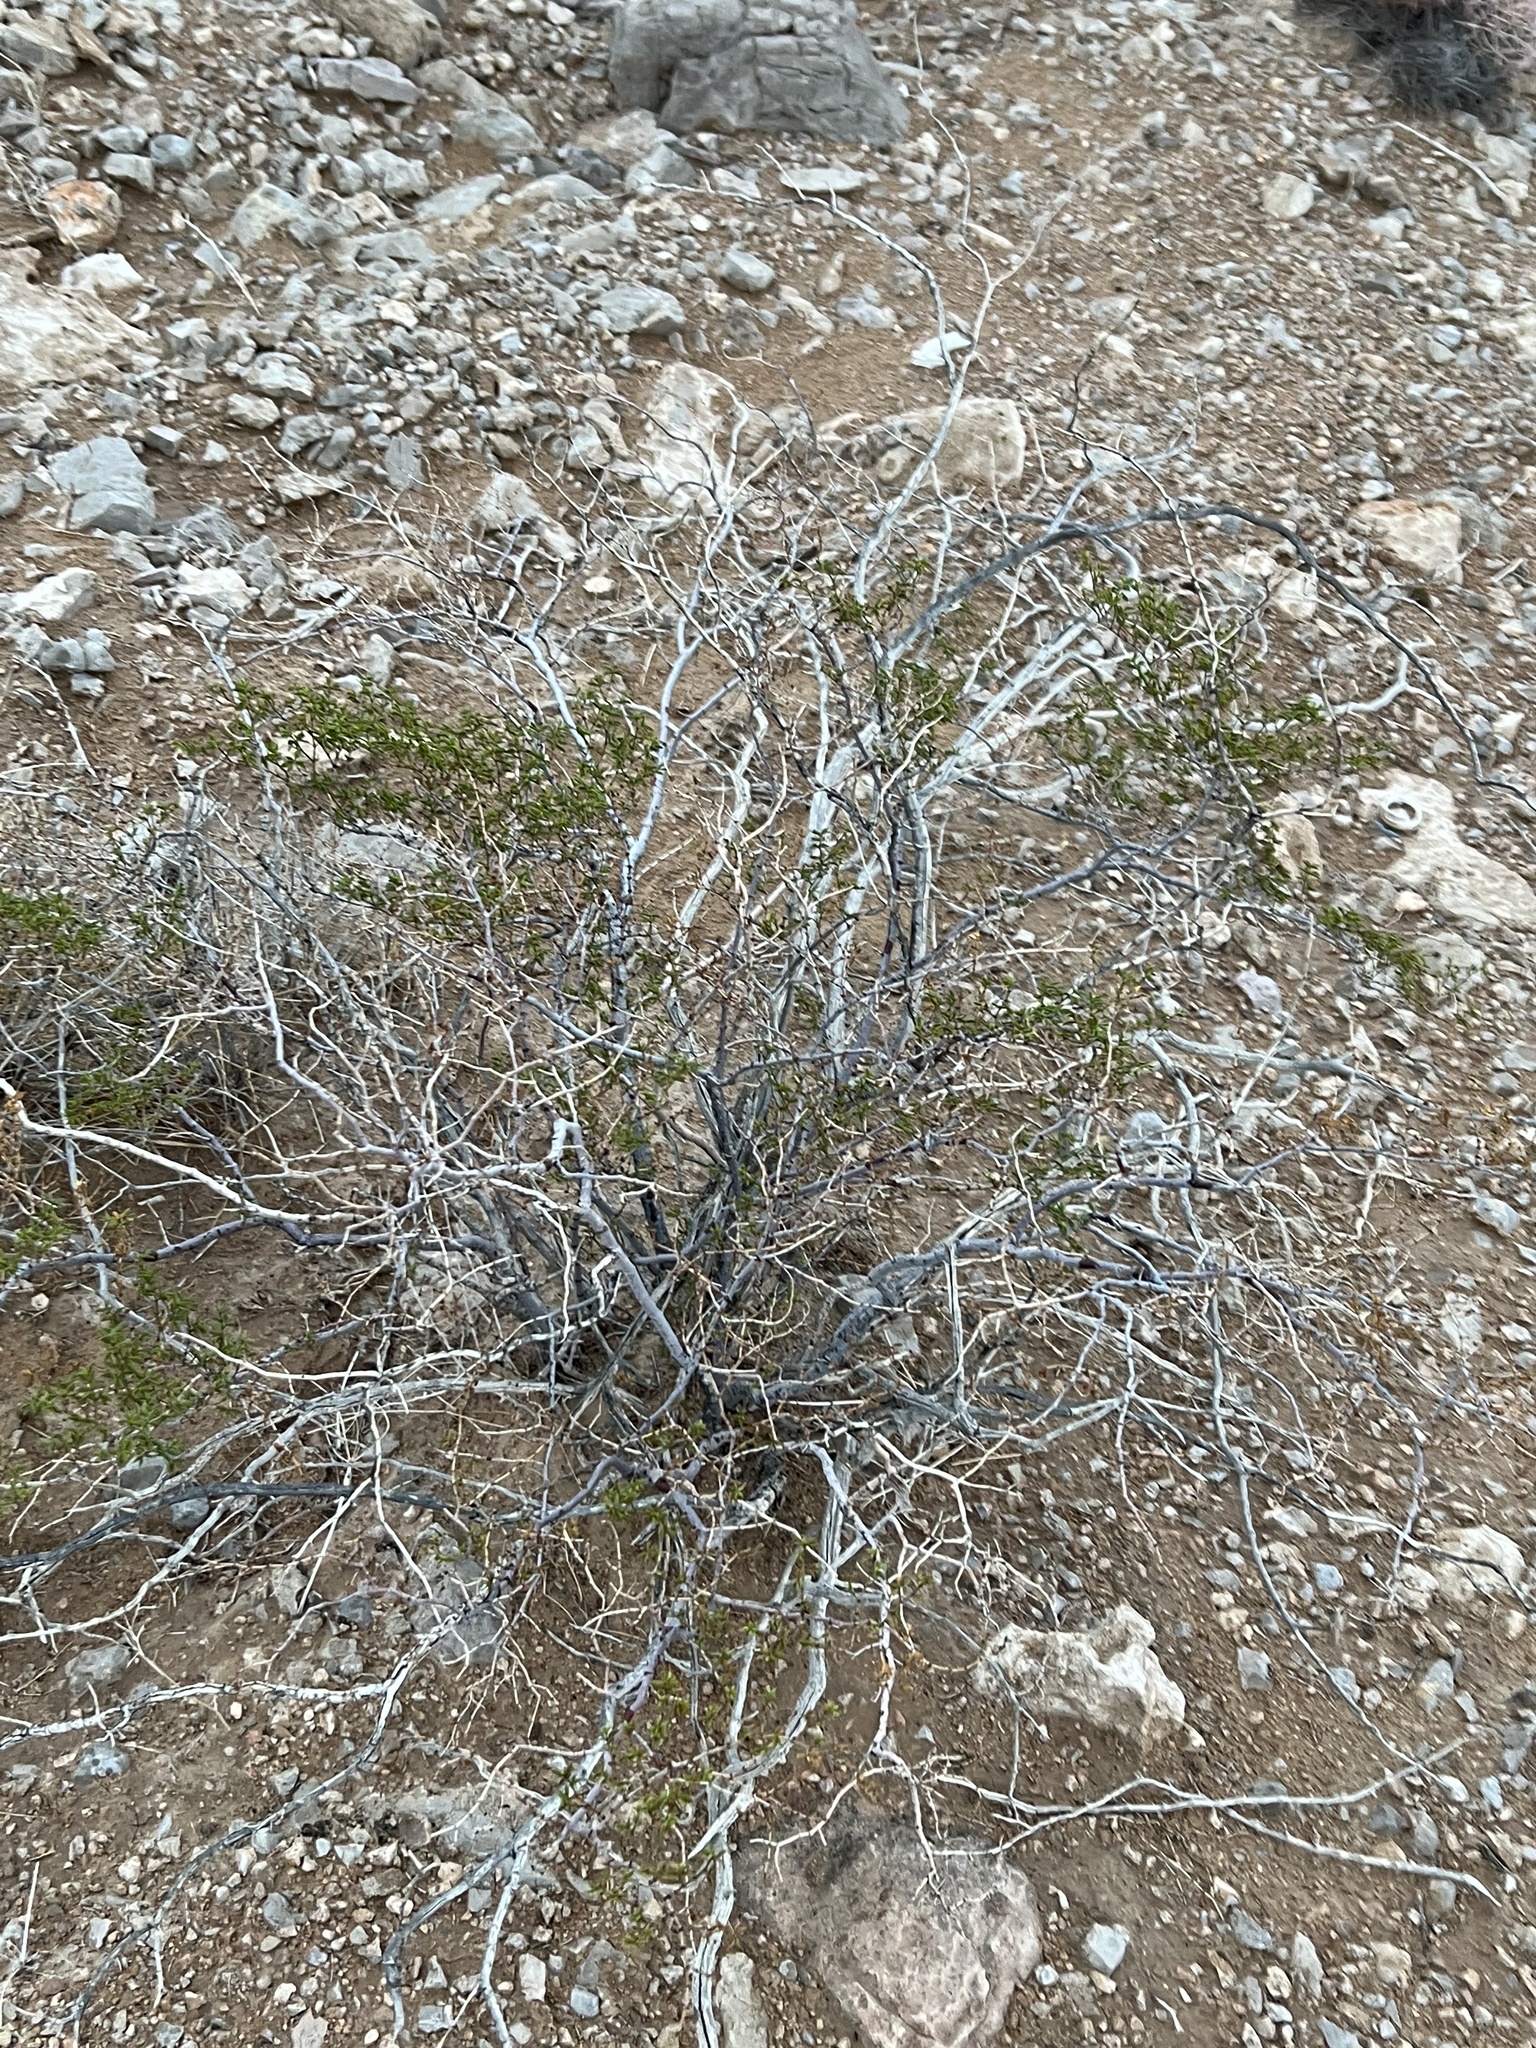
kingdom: Plantae
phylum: Tracheophyta
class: Magnoliopsida
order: Zygophyllales
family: Zygophyllaceae
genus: Larrea
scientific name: Larrea tridentata
